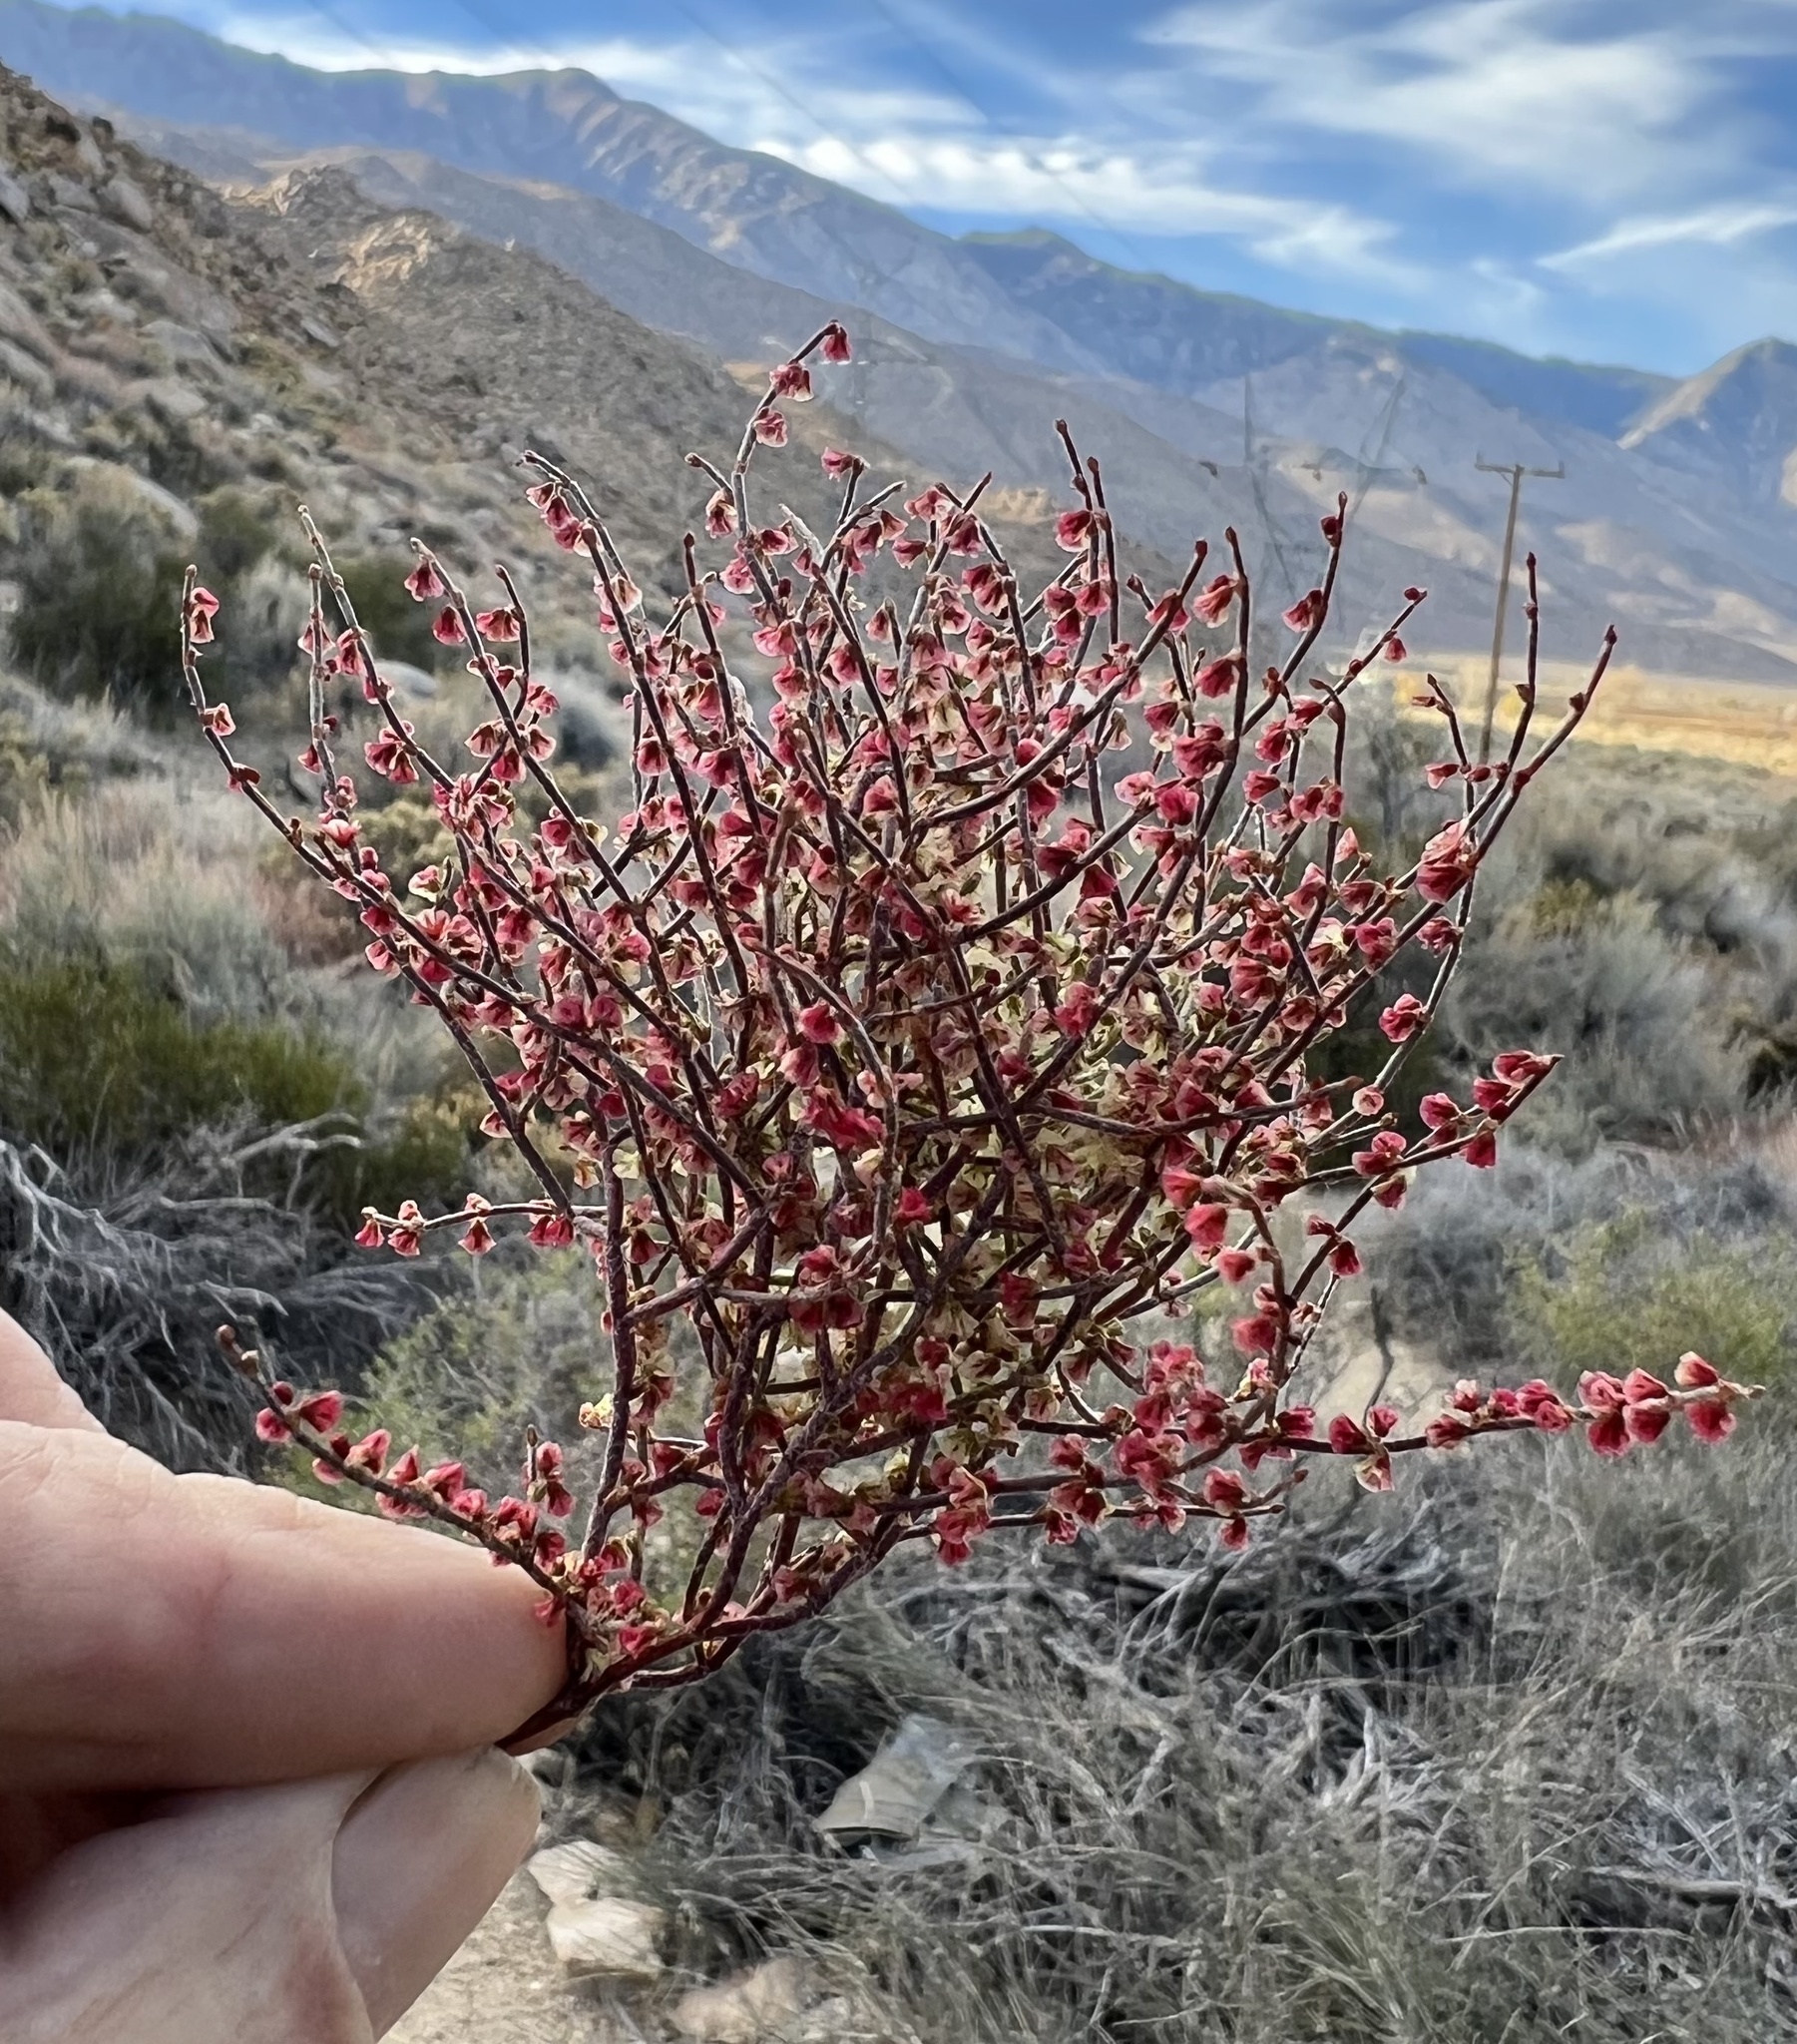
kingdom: Plantae
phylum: Tracheophyta
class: Magnoliopsida
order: Caryophyllales
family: Polygonaceae
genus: Eriogonum
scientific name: Eriogonum nidularium
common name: Bird's-nest wild buckwheat
